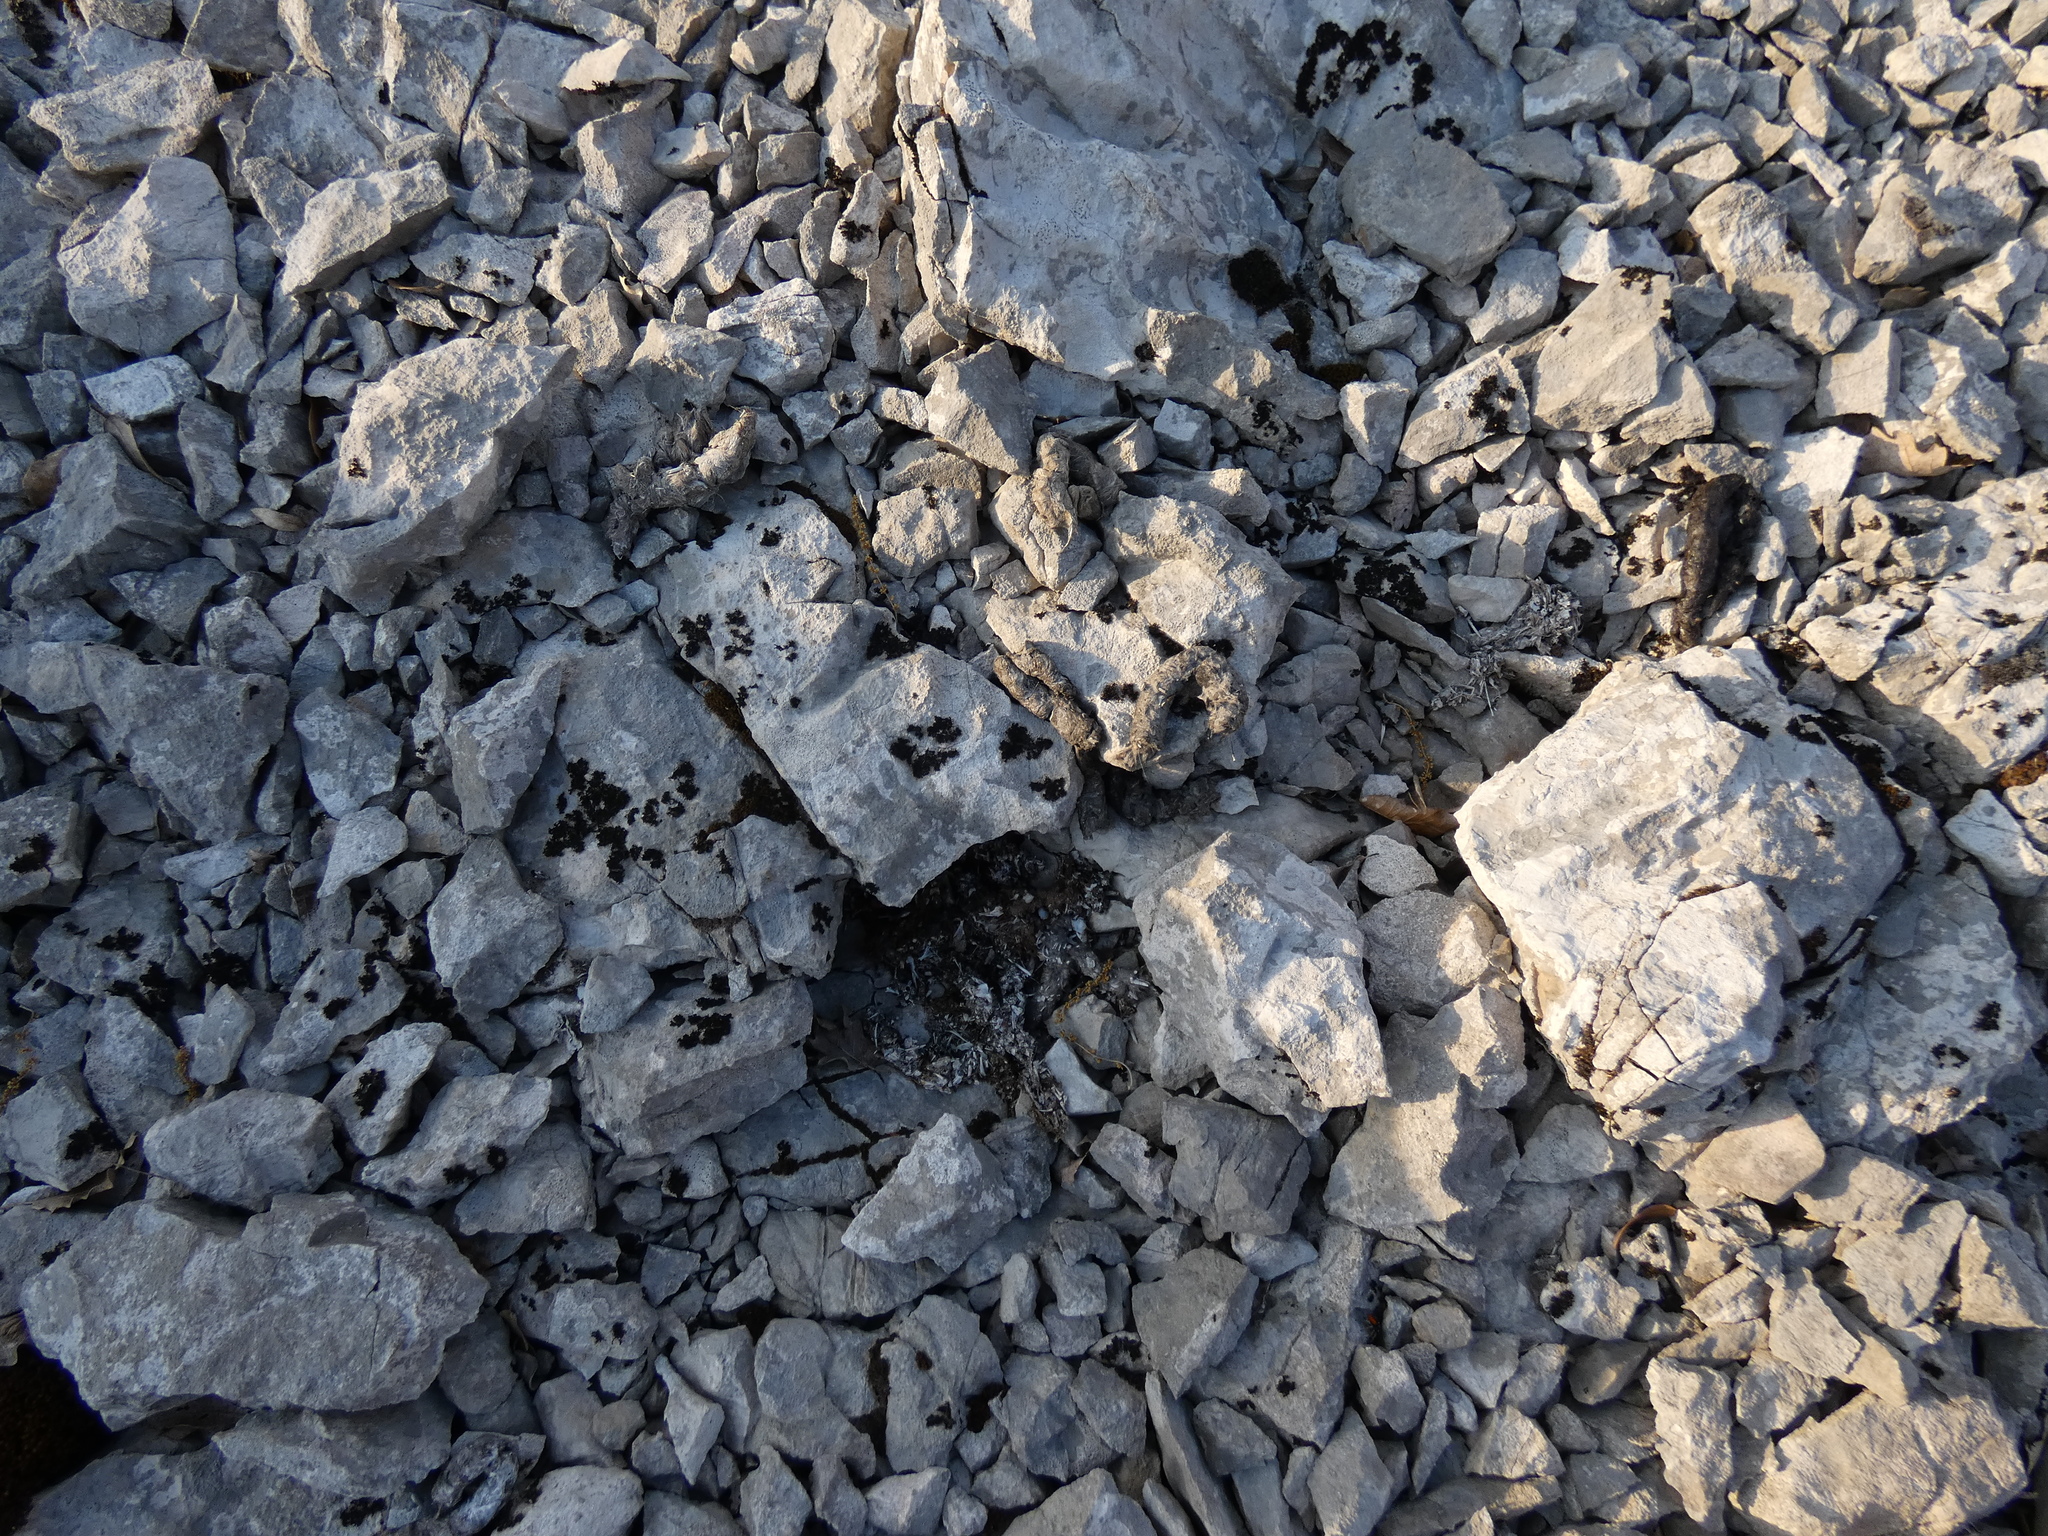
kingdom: Animalia
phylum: Chordata
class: Mammalia
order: Carnivora
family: Viverridae
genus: Genetta
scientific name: Genetta genetta
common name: Common genet
